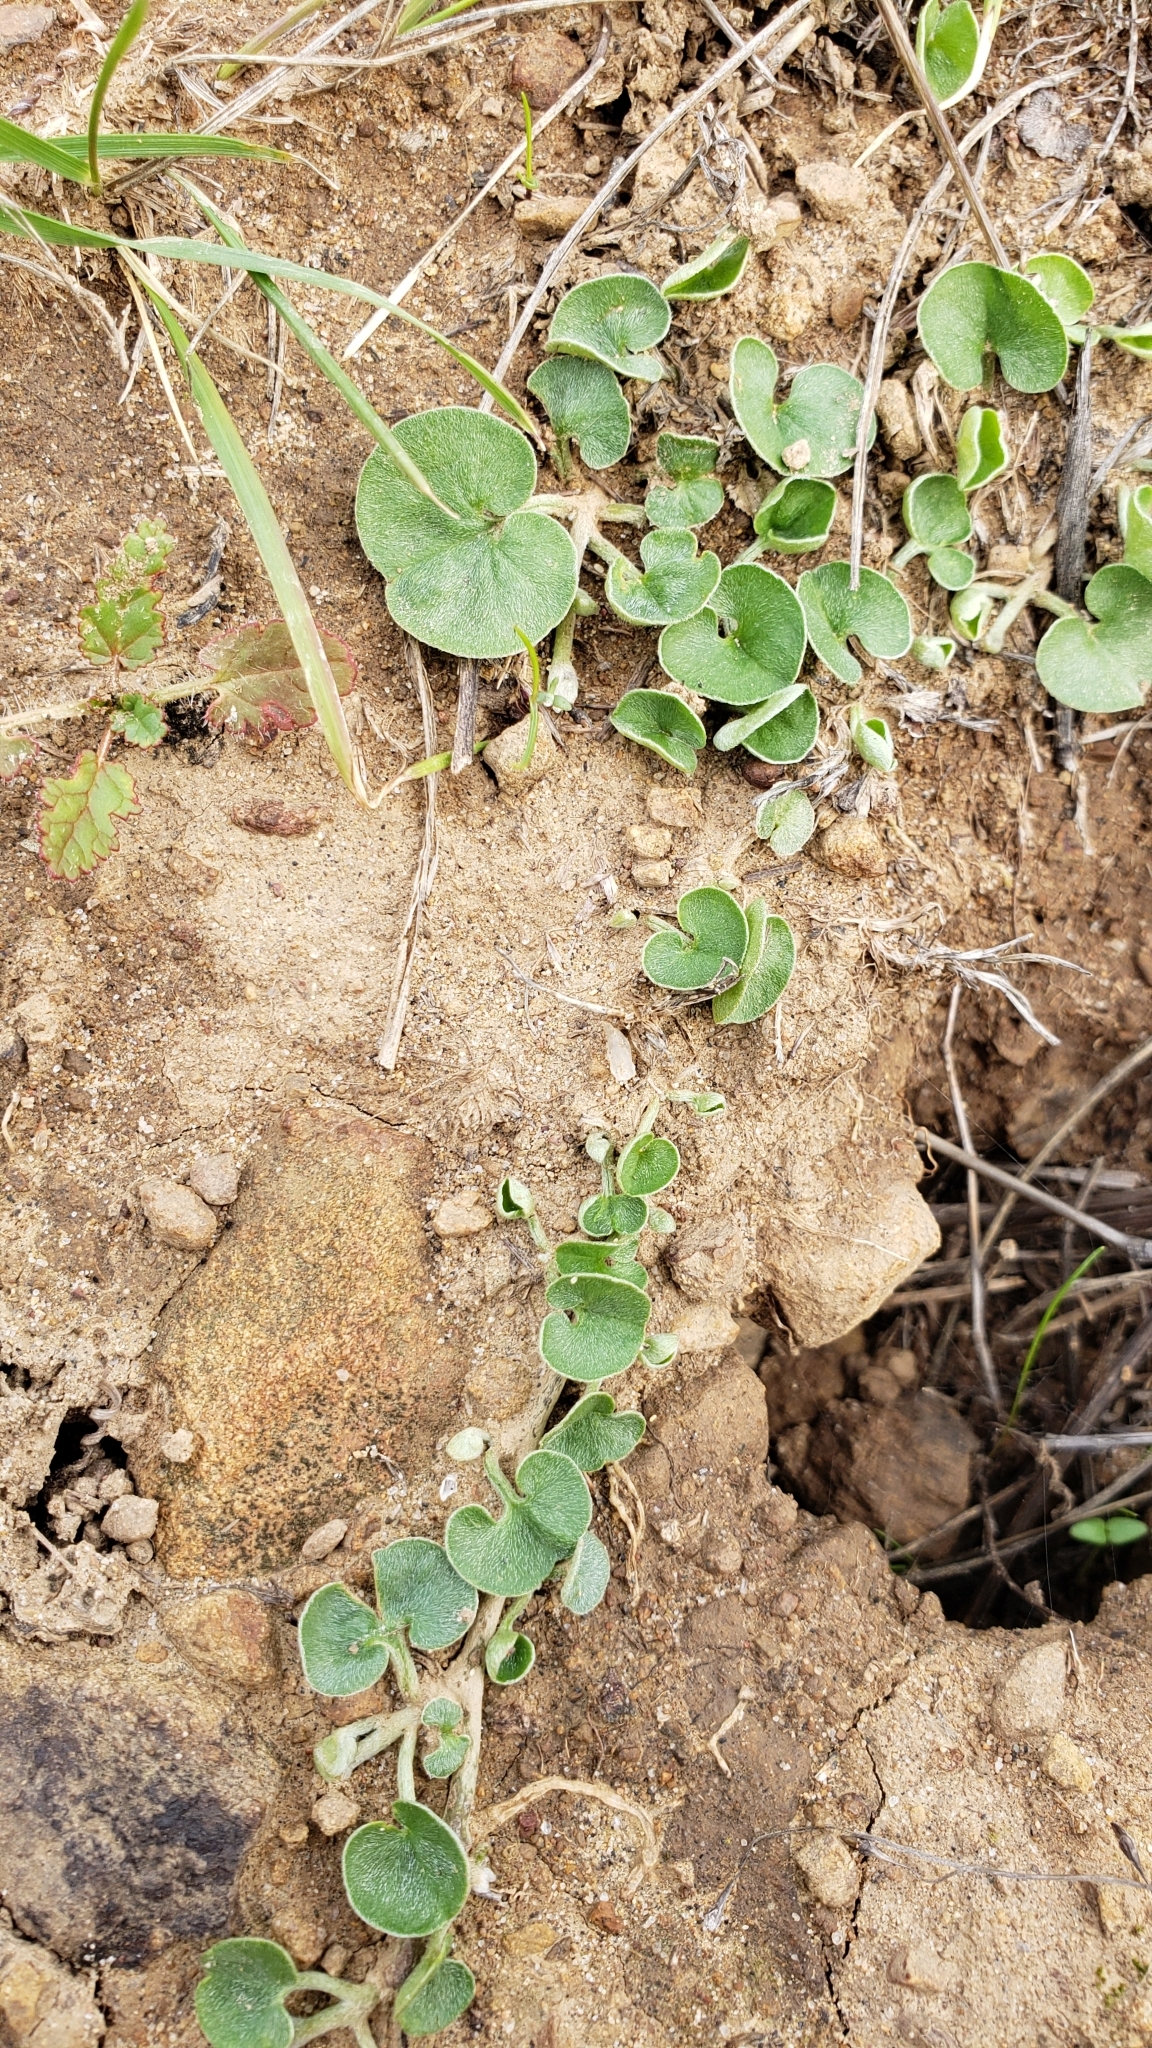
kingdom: Plantae
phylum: Tracheophyta
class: Magnoliopsida
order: Solanales
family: Convolvulaceae
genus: Dichondra
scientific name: Dichondra donelliana
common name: California ponysfoot
